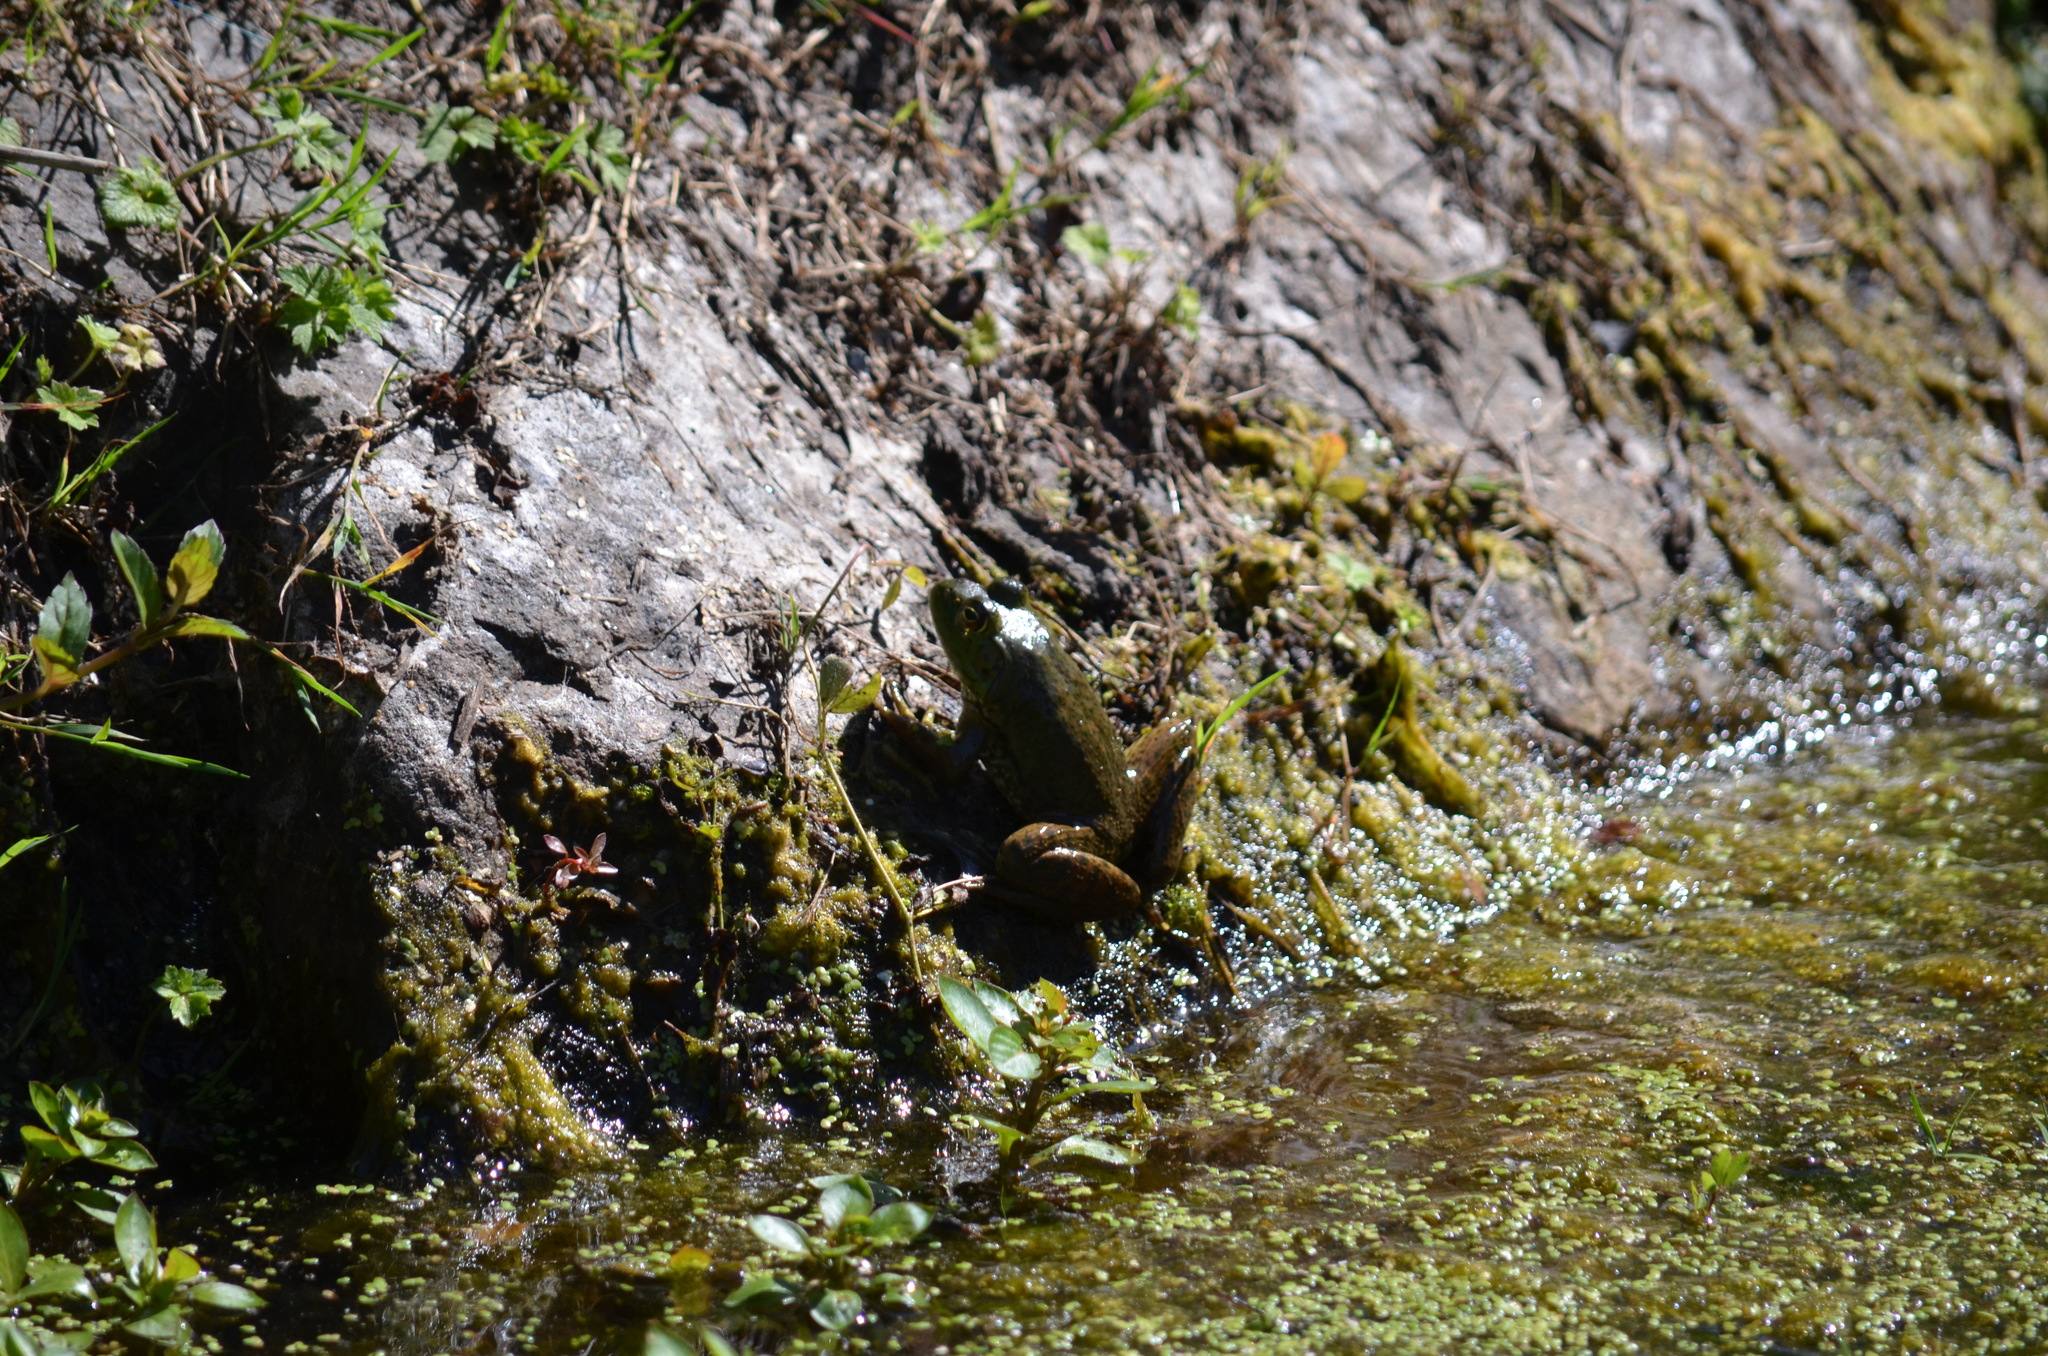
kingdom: Animalia
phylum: Chordata
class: Amphibia
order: Anura
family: Ranidae
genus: Lithobates
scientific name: Lithobates catesbeianus
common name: American bullfrog
